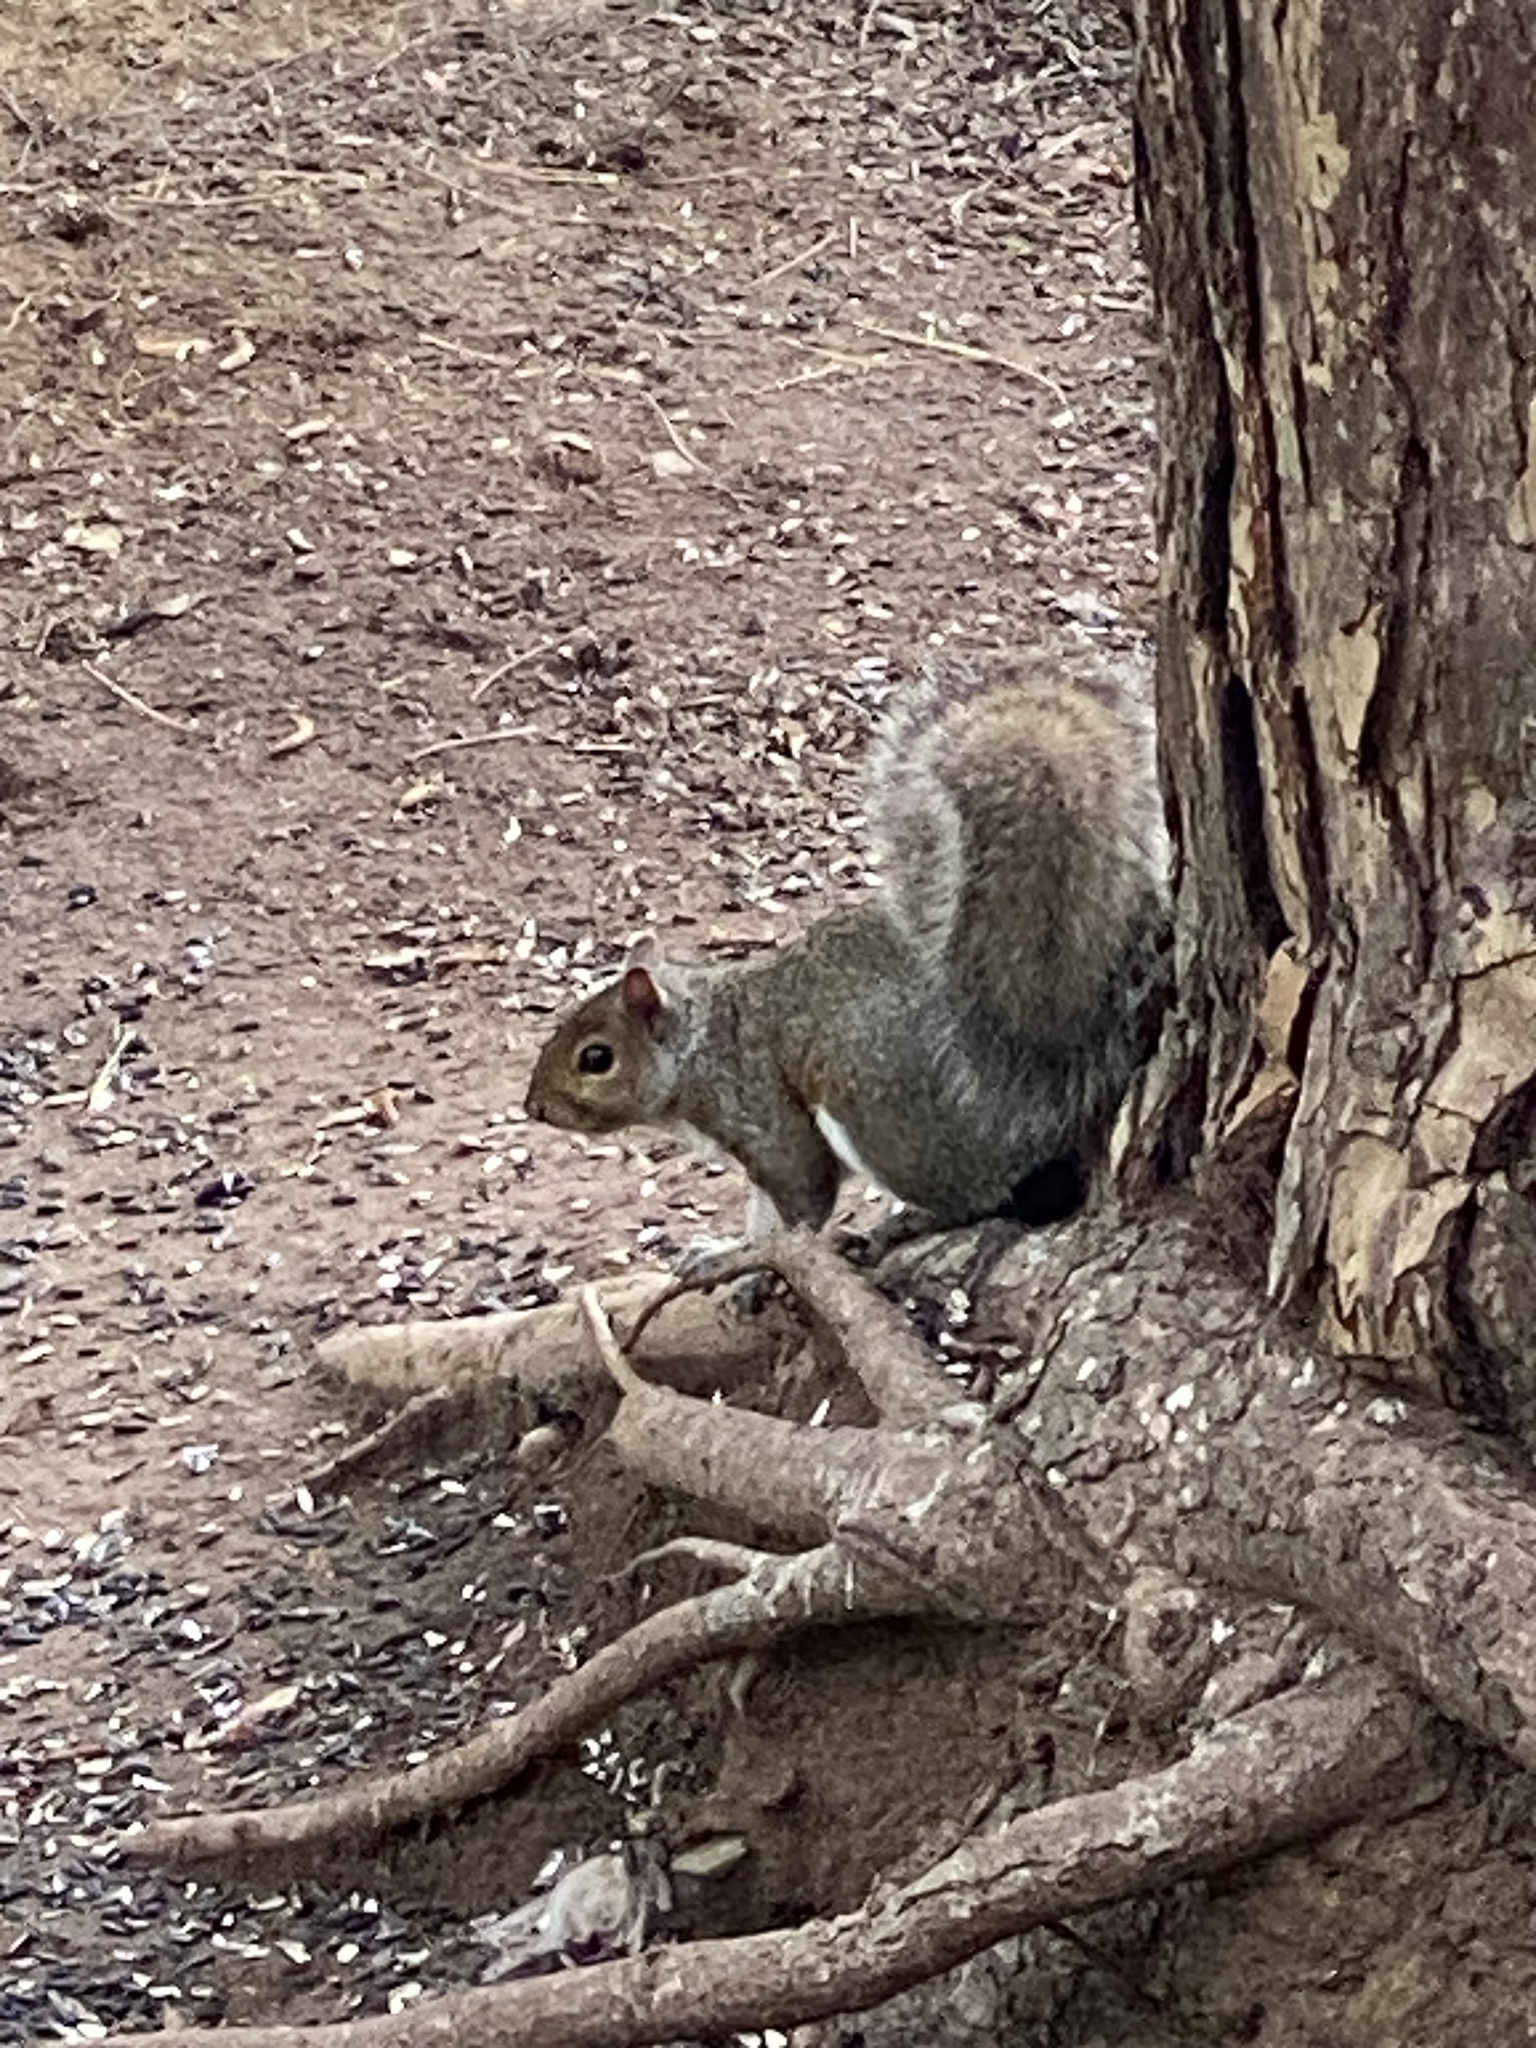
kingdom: Animalia
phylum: Chordata
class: Mammalia
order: Rodentia
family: Sciuridae
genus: Sciurus
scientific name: Sciurus carolinensis
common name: Eastern gray squirrel
